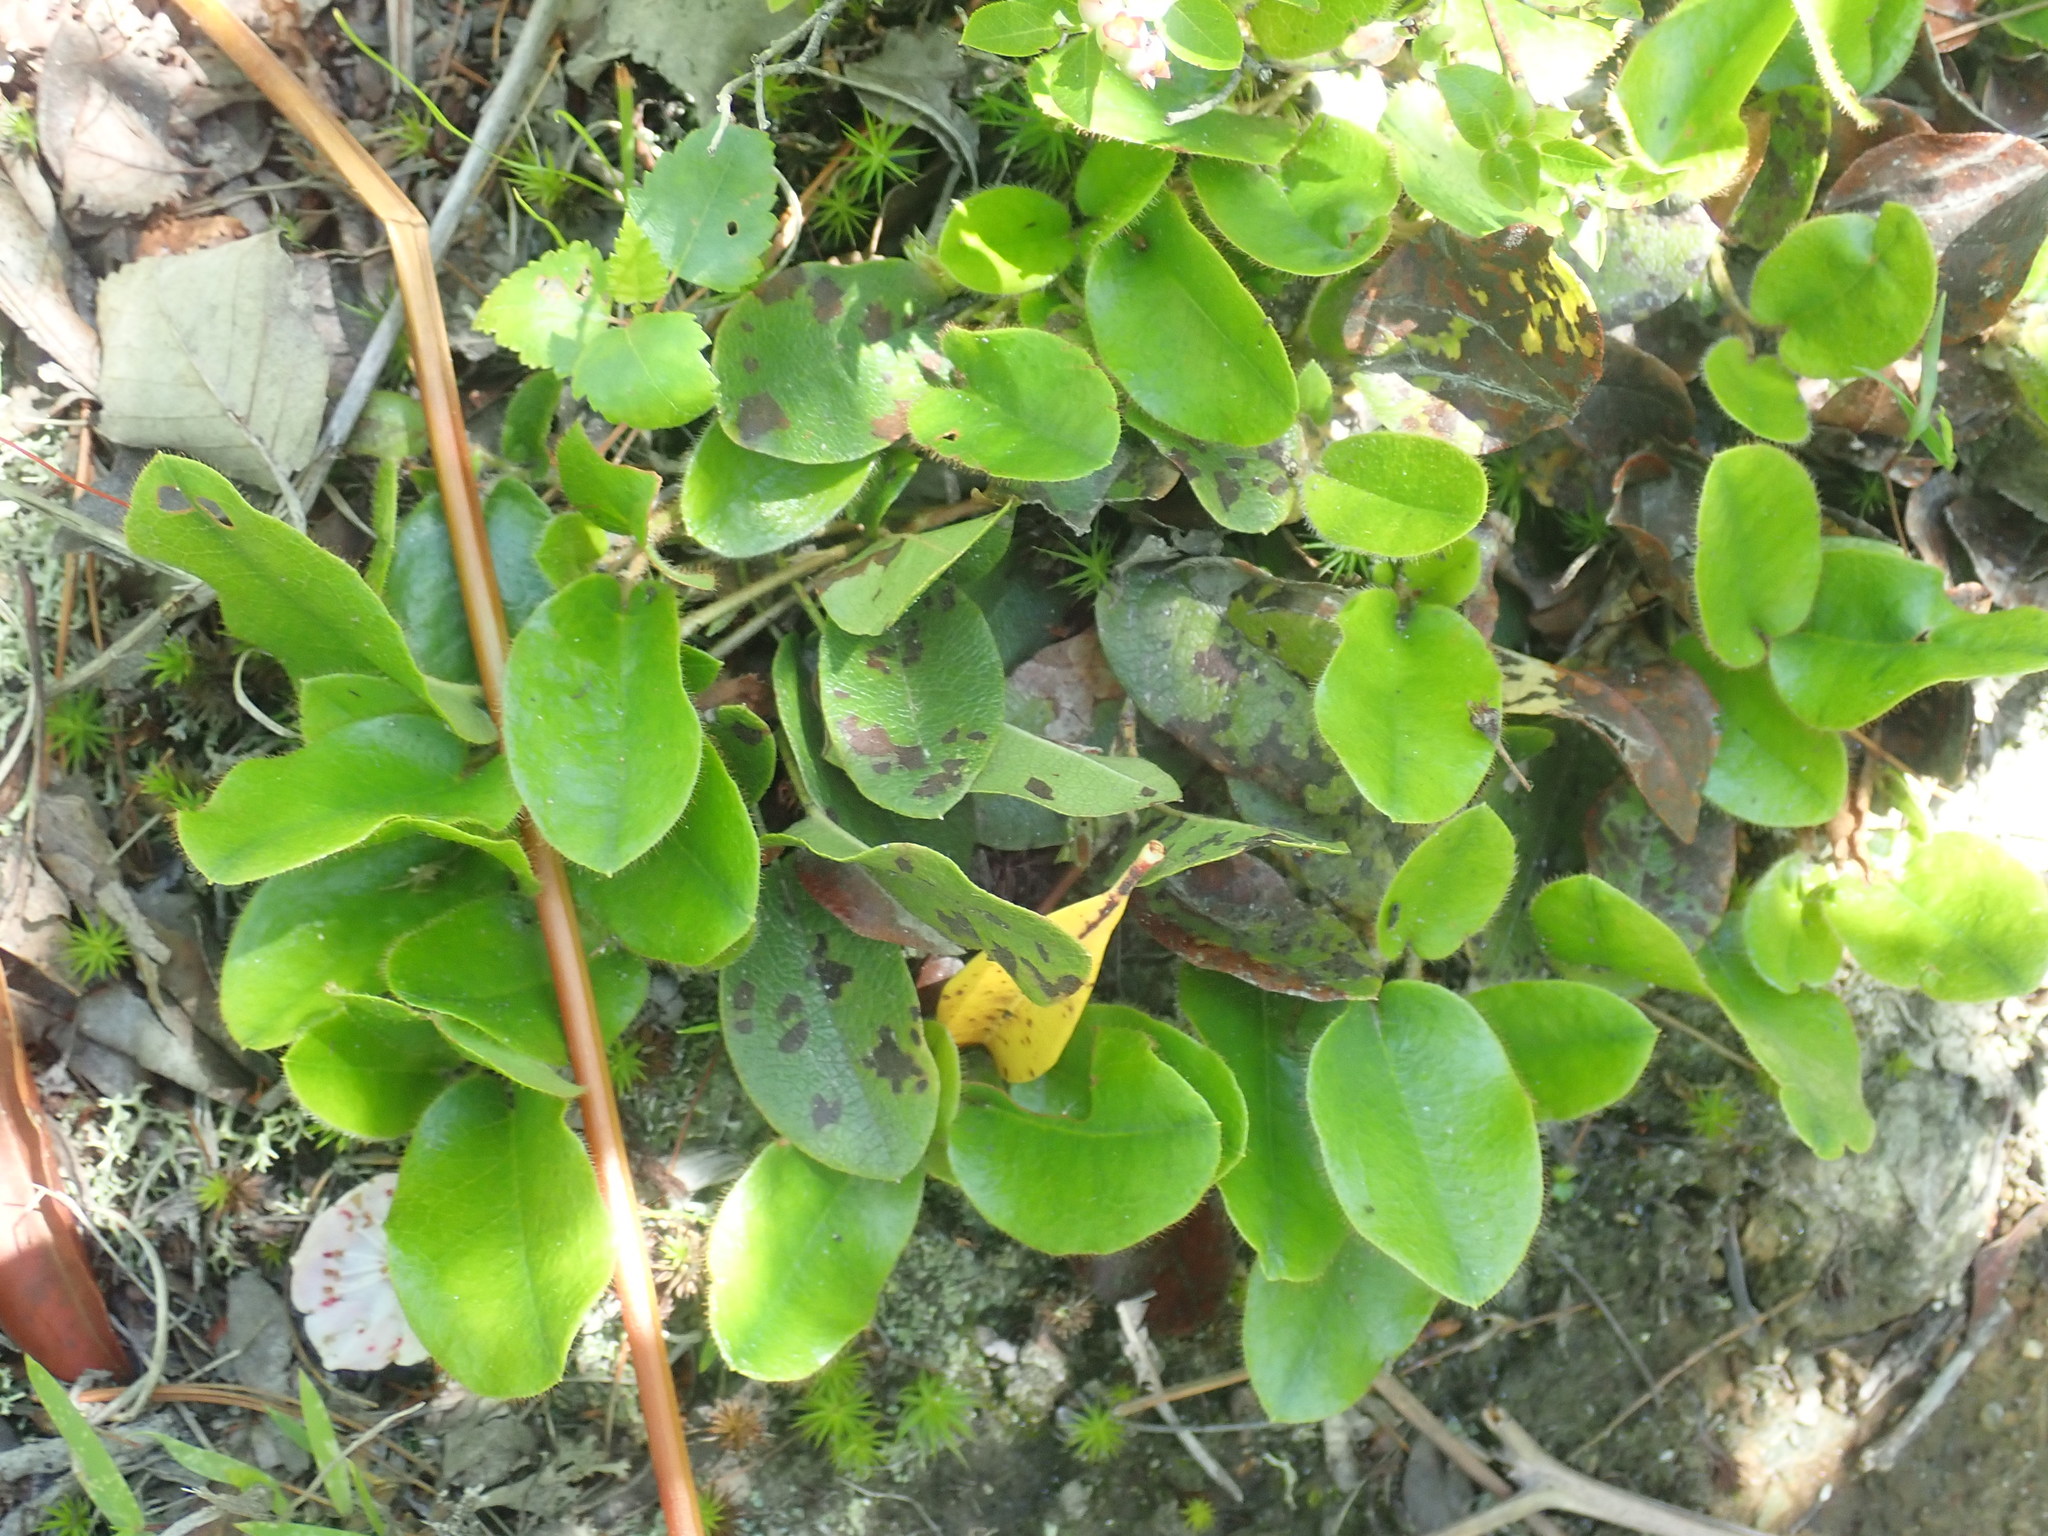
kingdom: Plantae
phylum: Tracheophyta
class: Magnoliopsida
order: Ericales
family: Ericaceae
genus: Epigaea
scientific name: Epigaea repens
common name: Gravelroot
